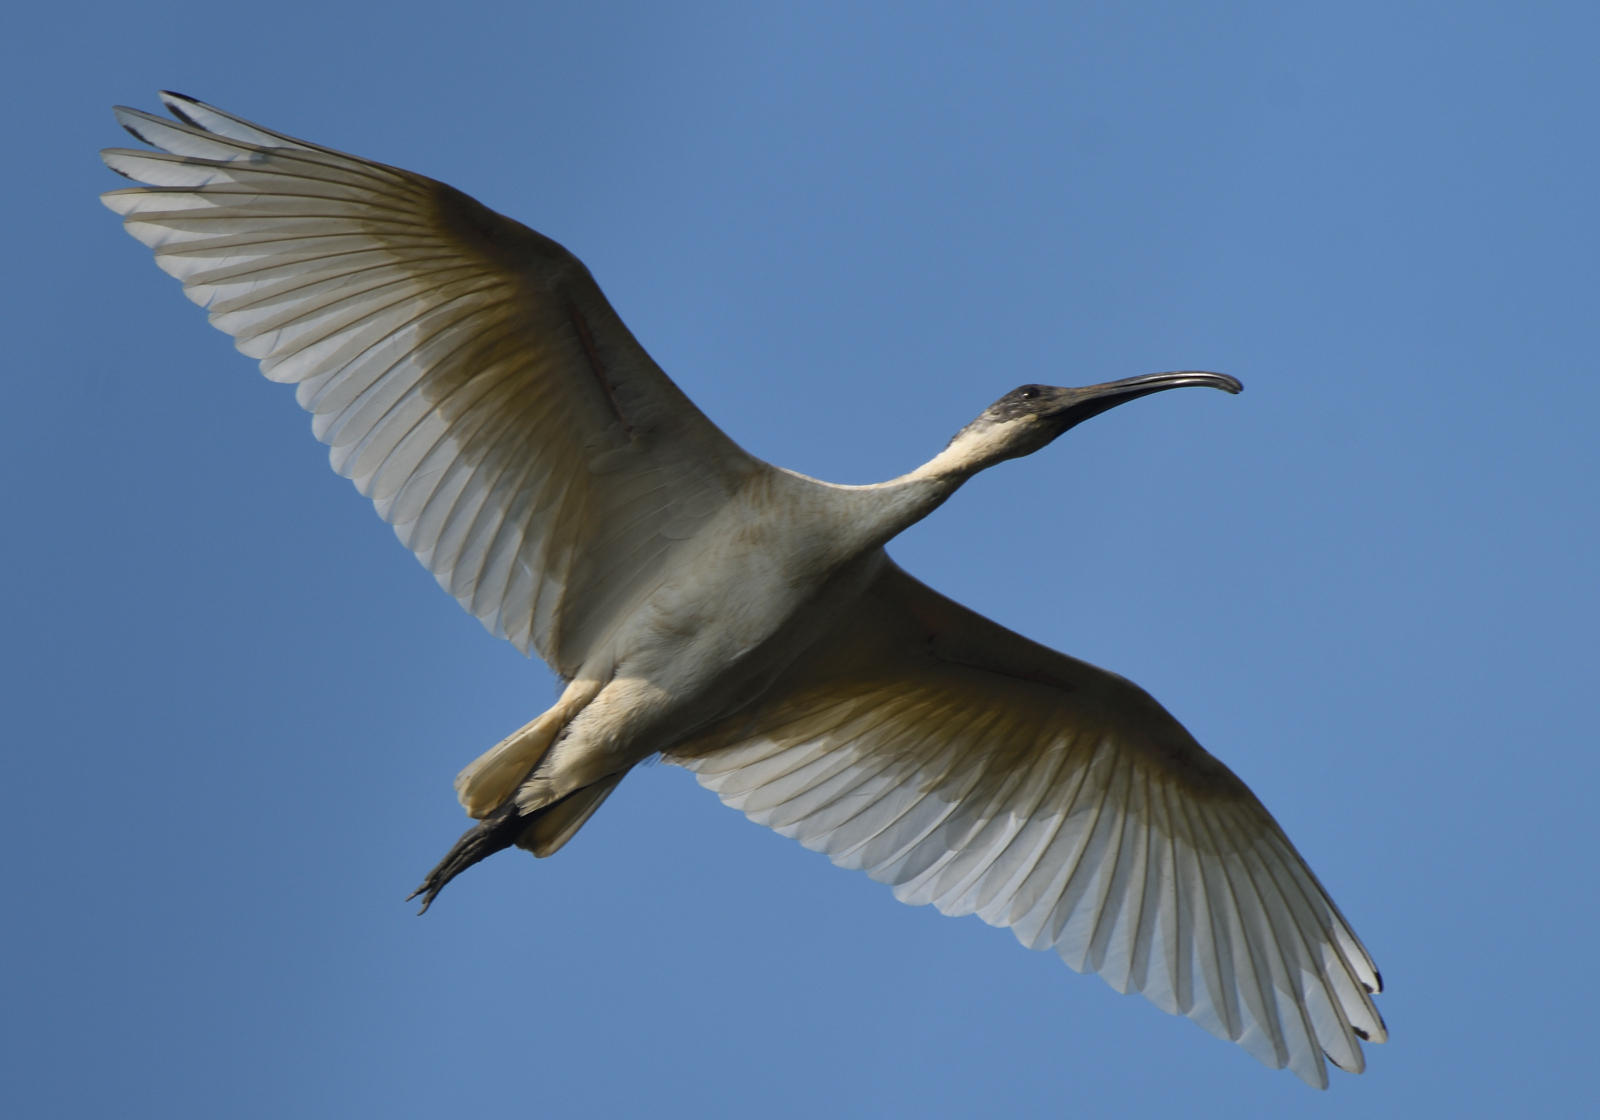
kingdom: Animalia
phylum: Chordata
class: Aves
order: Pelecaniformes
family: Threskiornithidae
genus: Threskiornis
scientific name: Threskiornis melanocephalus
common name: Black-headed ibis
